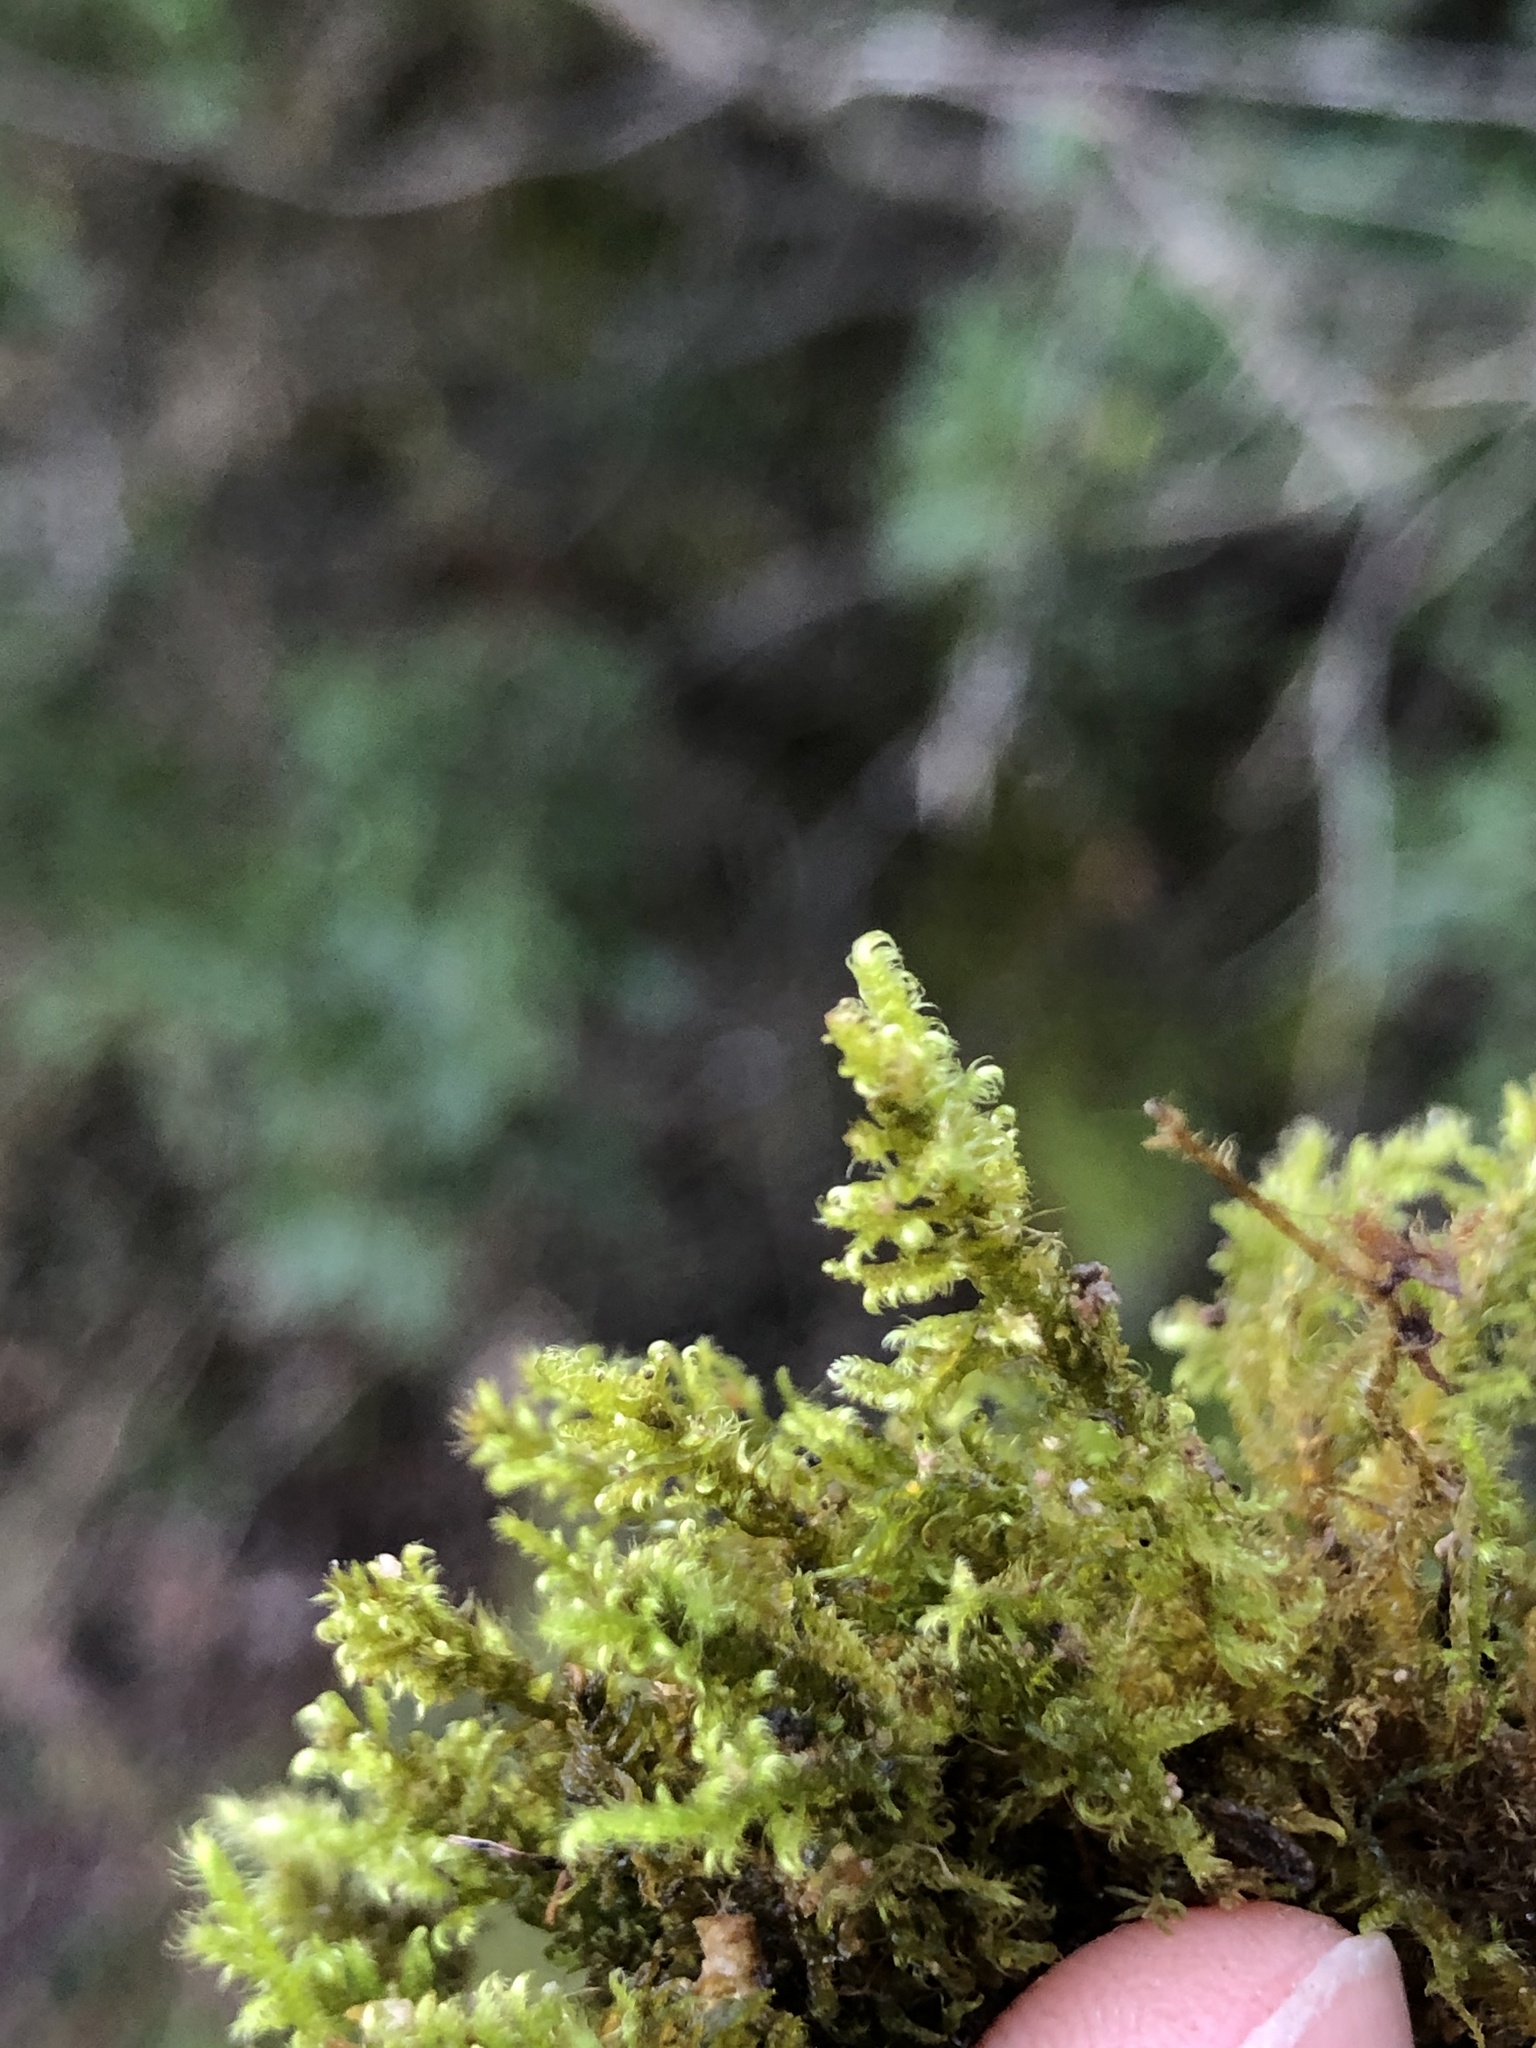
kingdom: Plantae
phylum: Bryophyta
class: Bryopsida
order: Hypnales
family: Myuriaceae
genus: Ctenidium
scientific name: Ctenidium molluscum
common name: Chalk comb-moss
